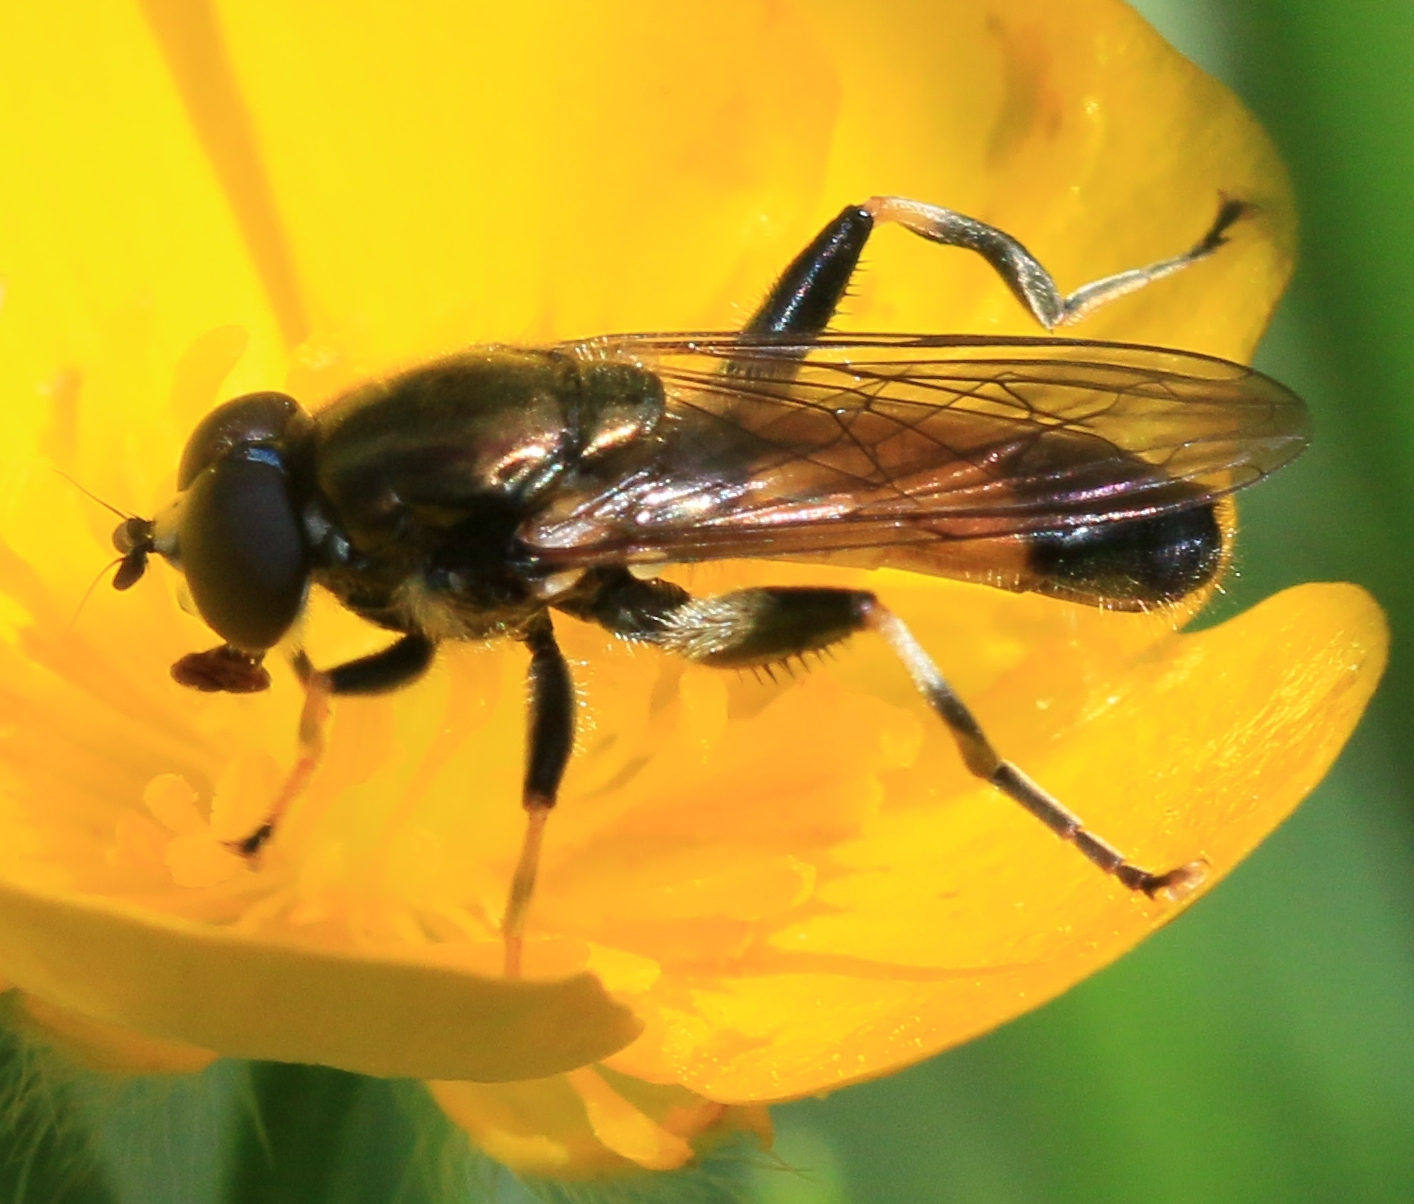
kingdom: Animalia
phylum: Arthropoda
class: Insecta
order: Diptera
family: Syrphidae
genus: Xylota
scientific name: Xylota segnis
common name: Brown-toed forest fly
